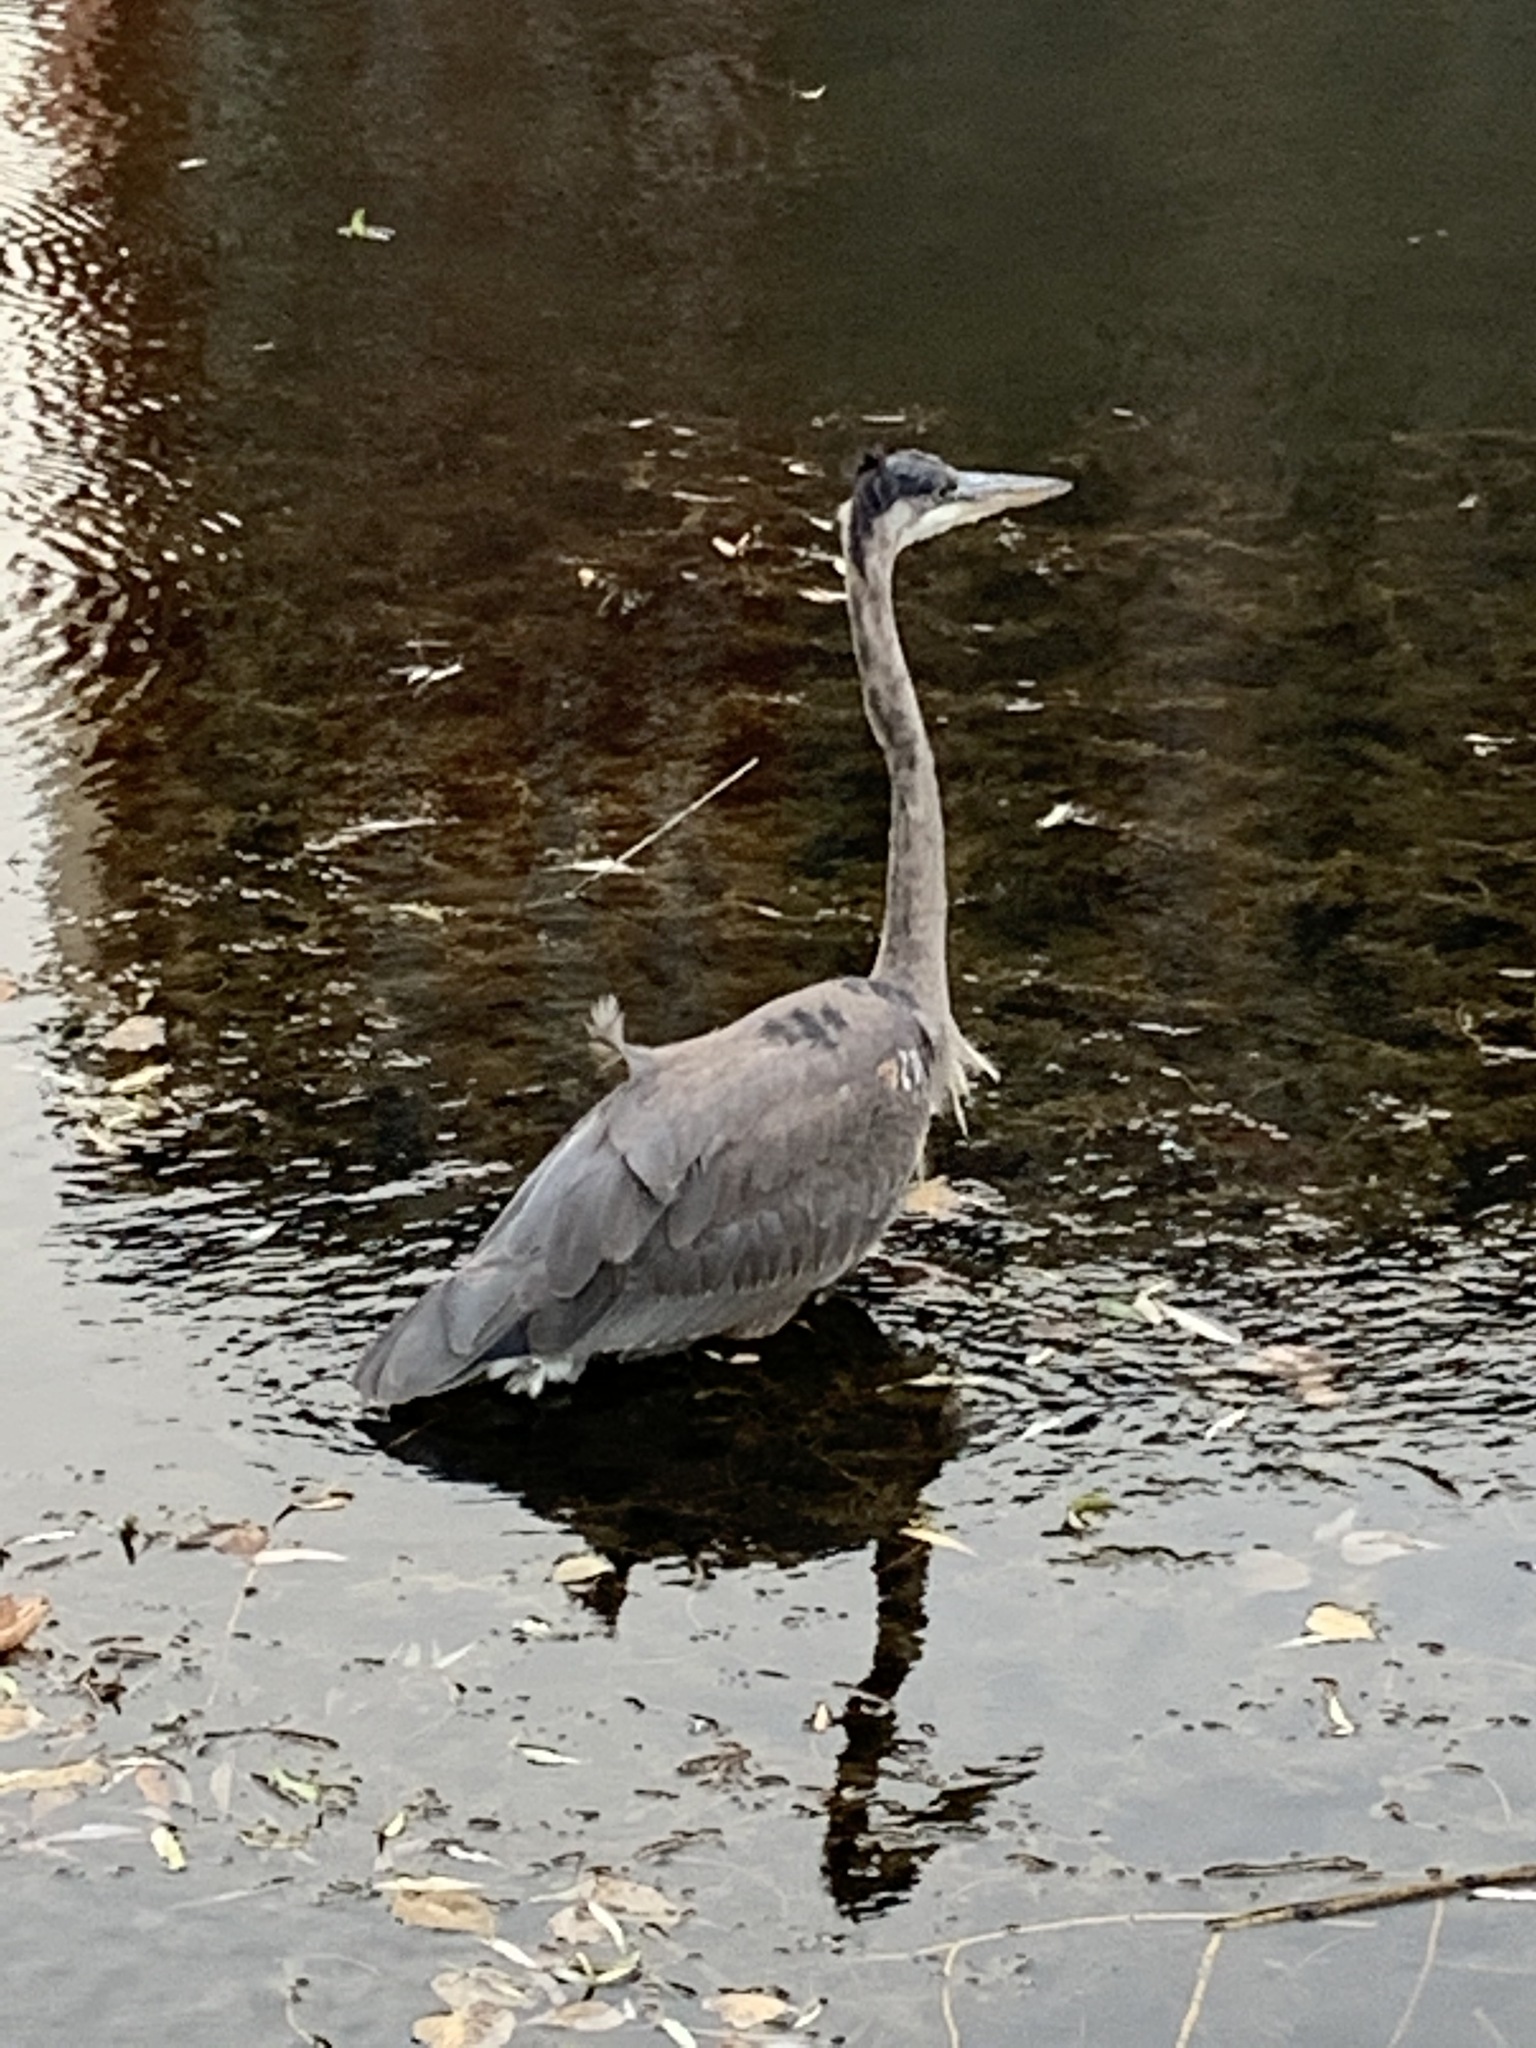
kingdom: Animalia
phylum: Chordata
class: Aves
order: Pelecaniformes
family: Ardeidae
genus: Ardea
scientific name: Ardea herodias
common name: Great blue heron
